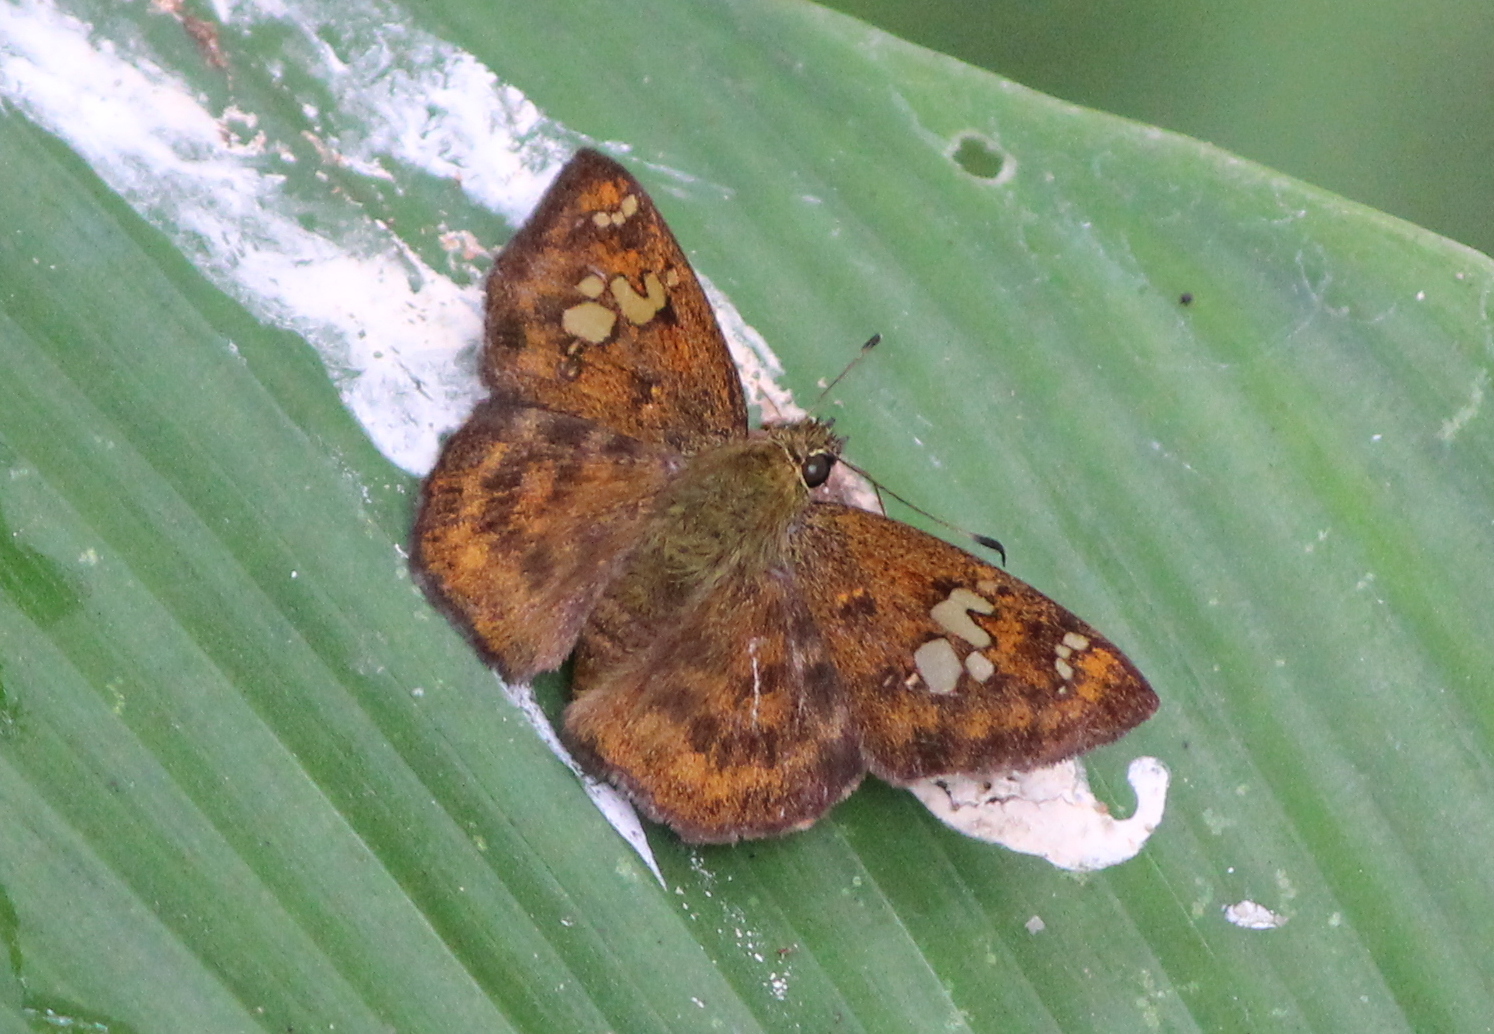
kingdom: Animalia
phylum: Arthropoda
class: Insecta
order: Lepidoptera
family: Hesperiidae
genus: Pseudocoladenia
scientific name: Pseudocoladenia dan
